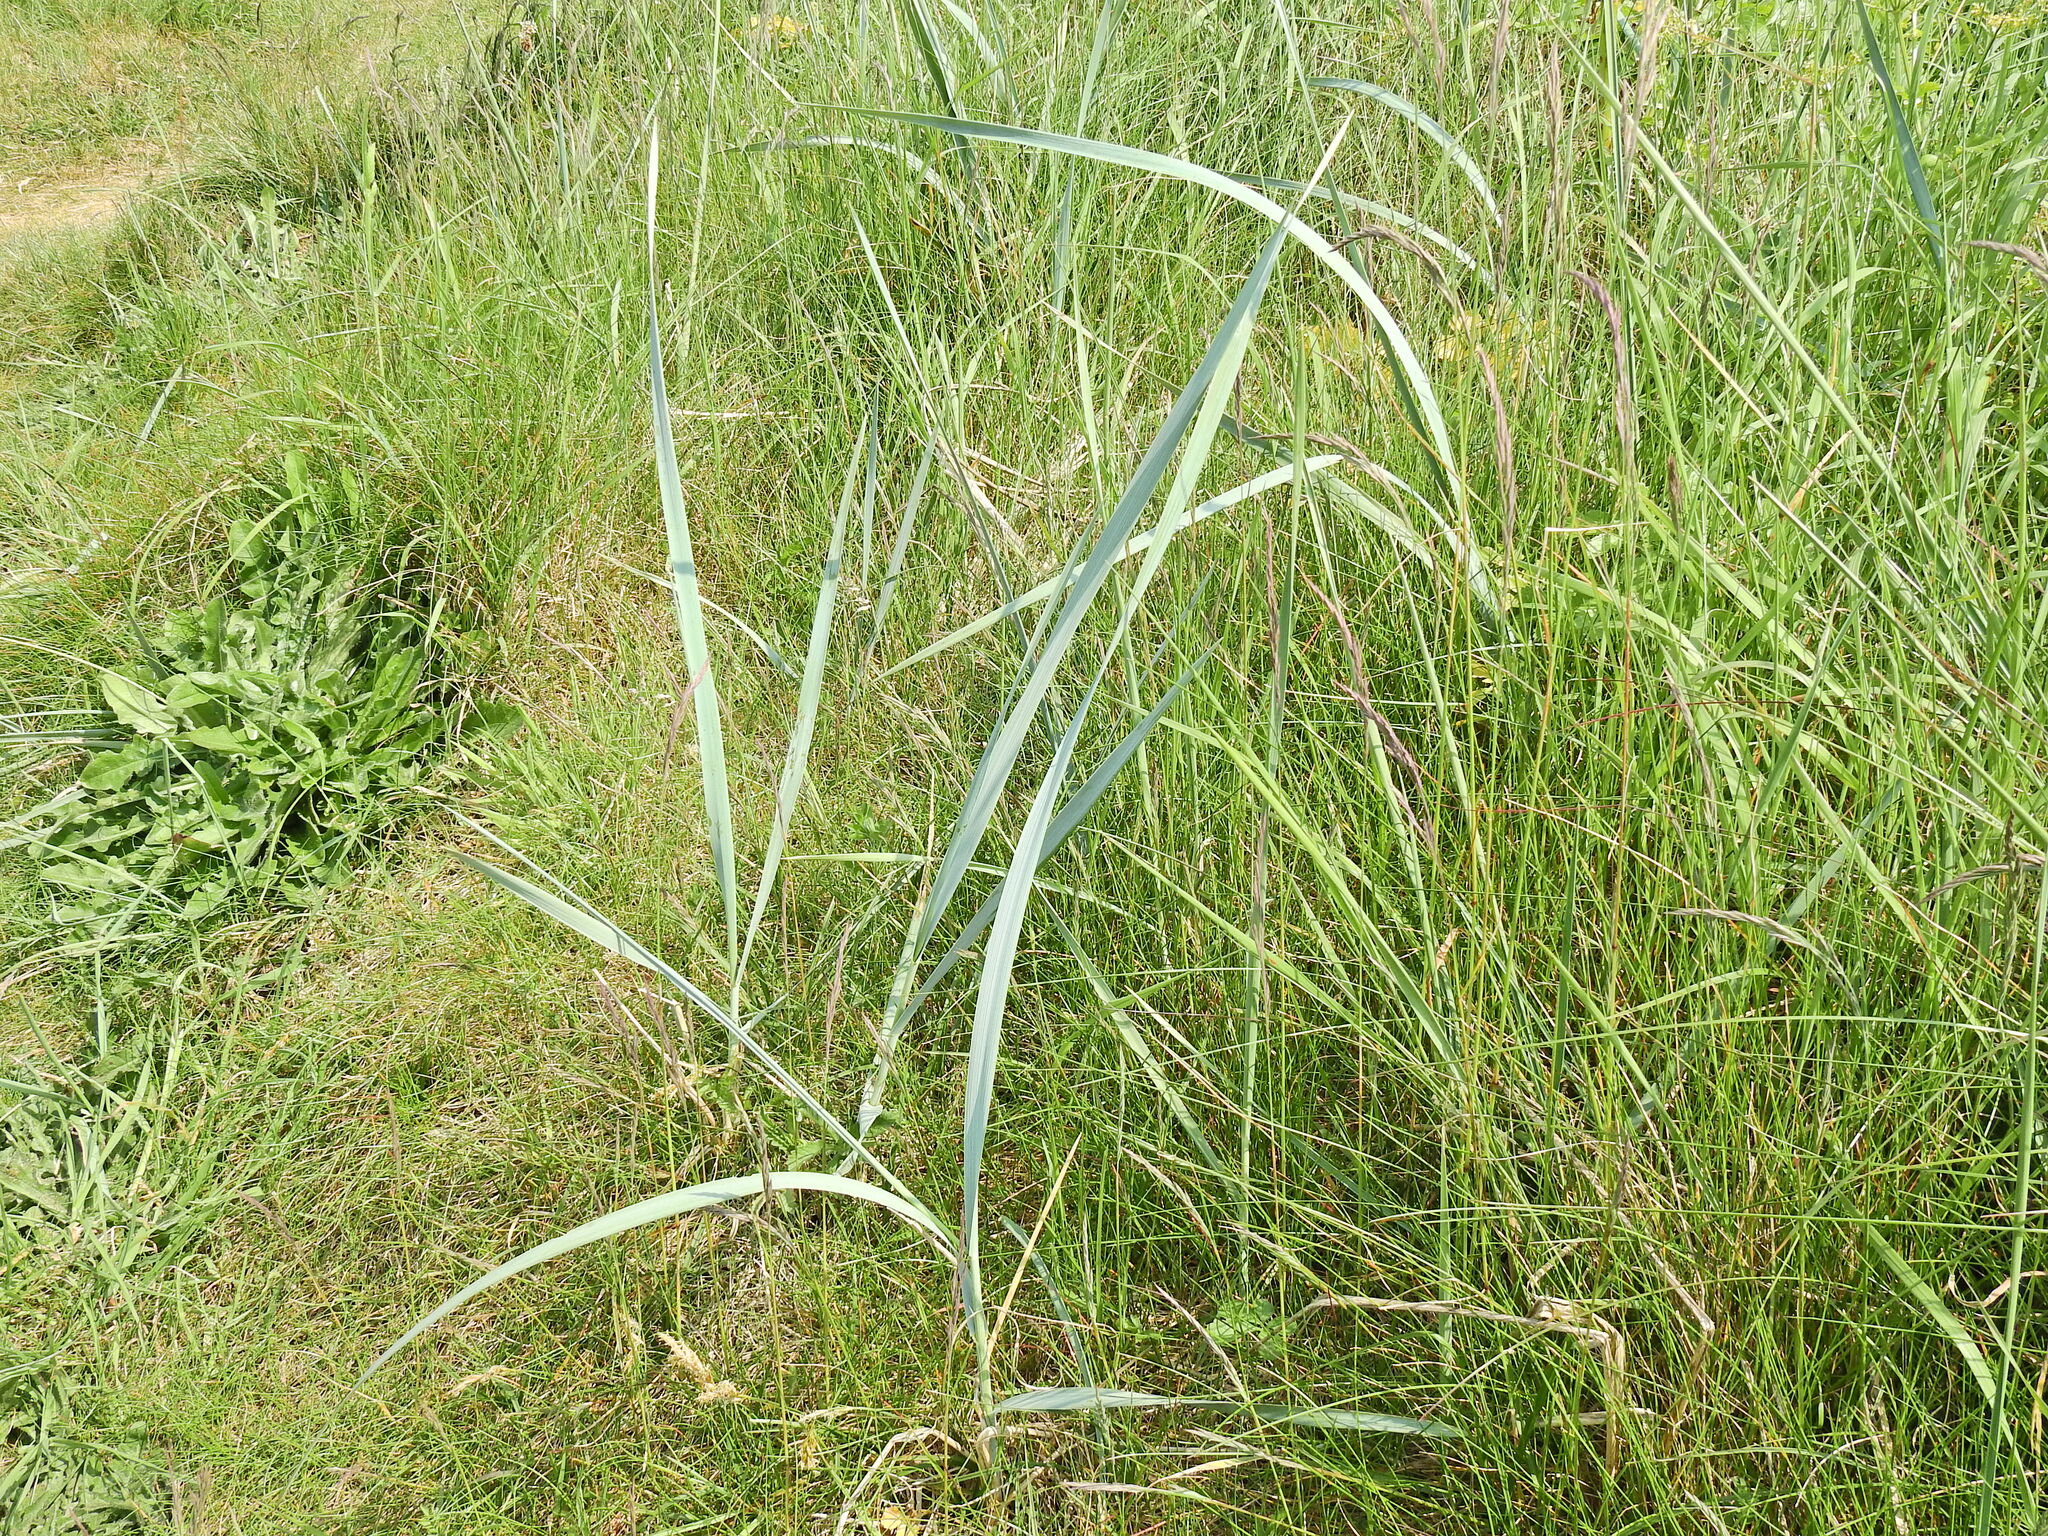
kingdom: Plantae
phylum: Tracheophyta
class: Liliopsida
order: Poales
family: Poaceae
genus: Leymus
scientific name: Leymus arenarius
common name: Lyme-grass
